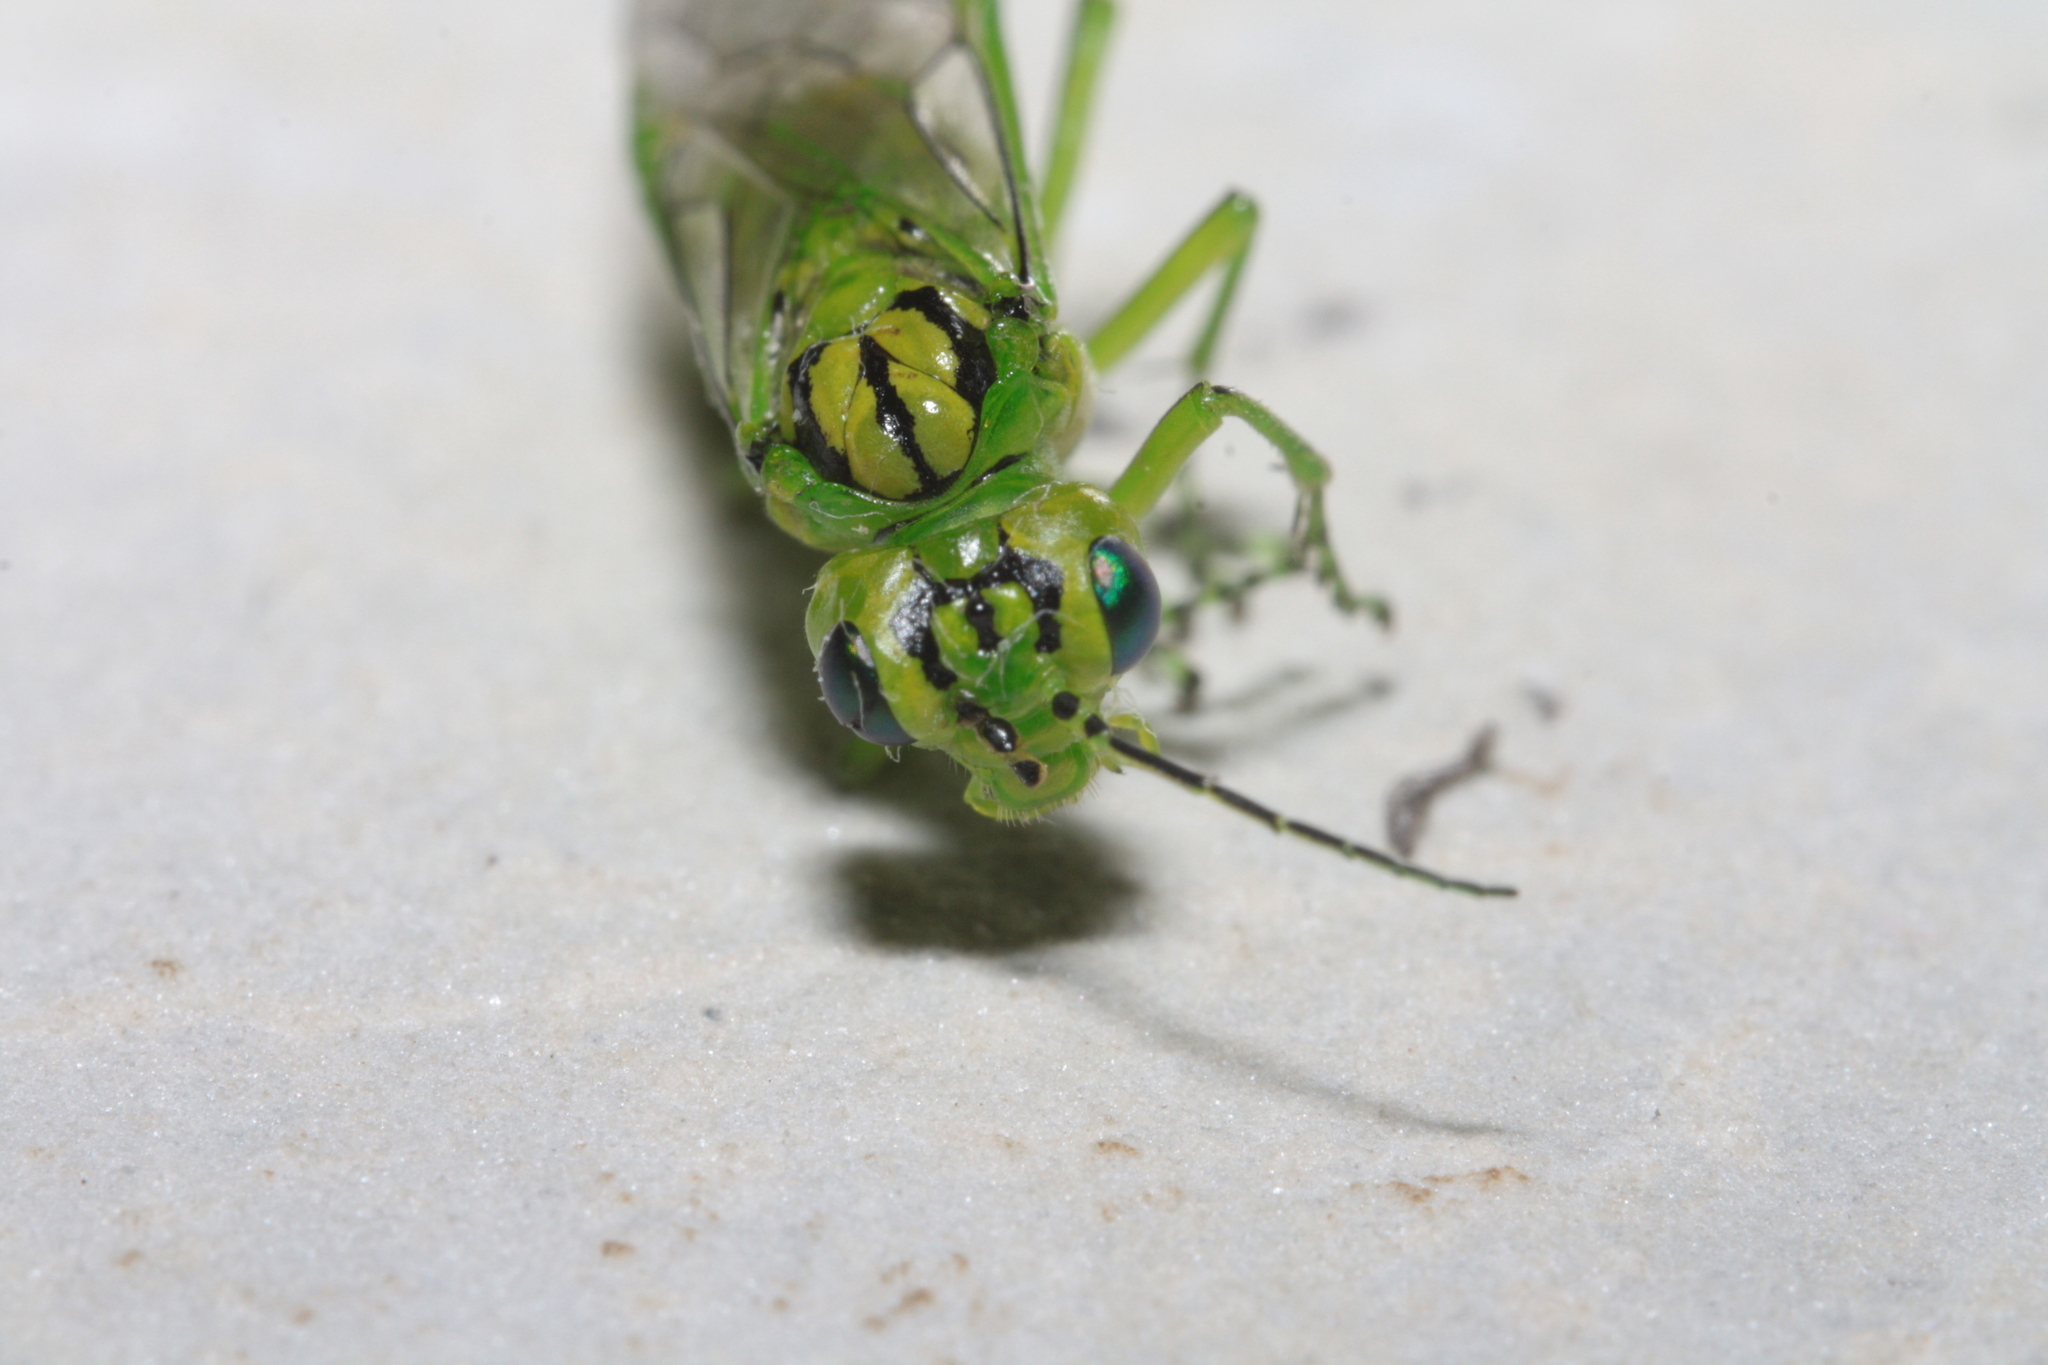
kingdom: Animalia
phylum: Arthropoda
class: Insecta
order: Hymenoptera
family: Tenthredinidae
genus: Rhogogaster
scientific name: Rhogogaster punctulata
